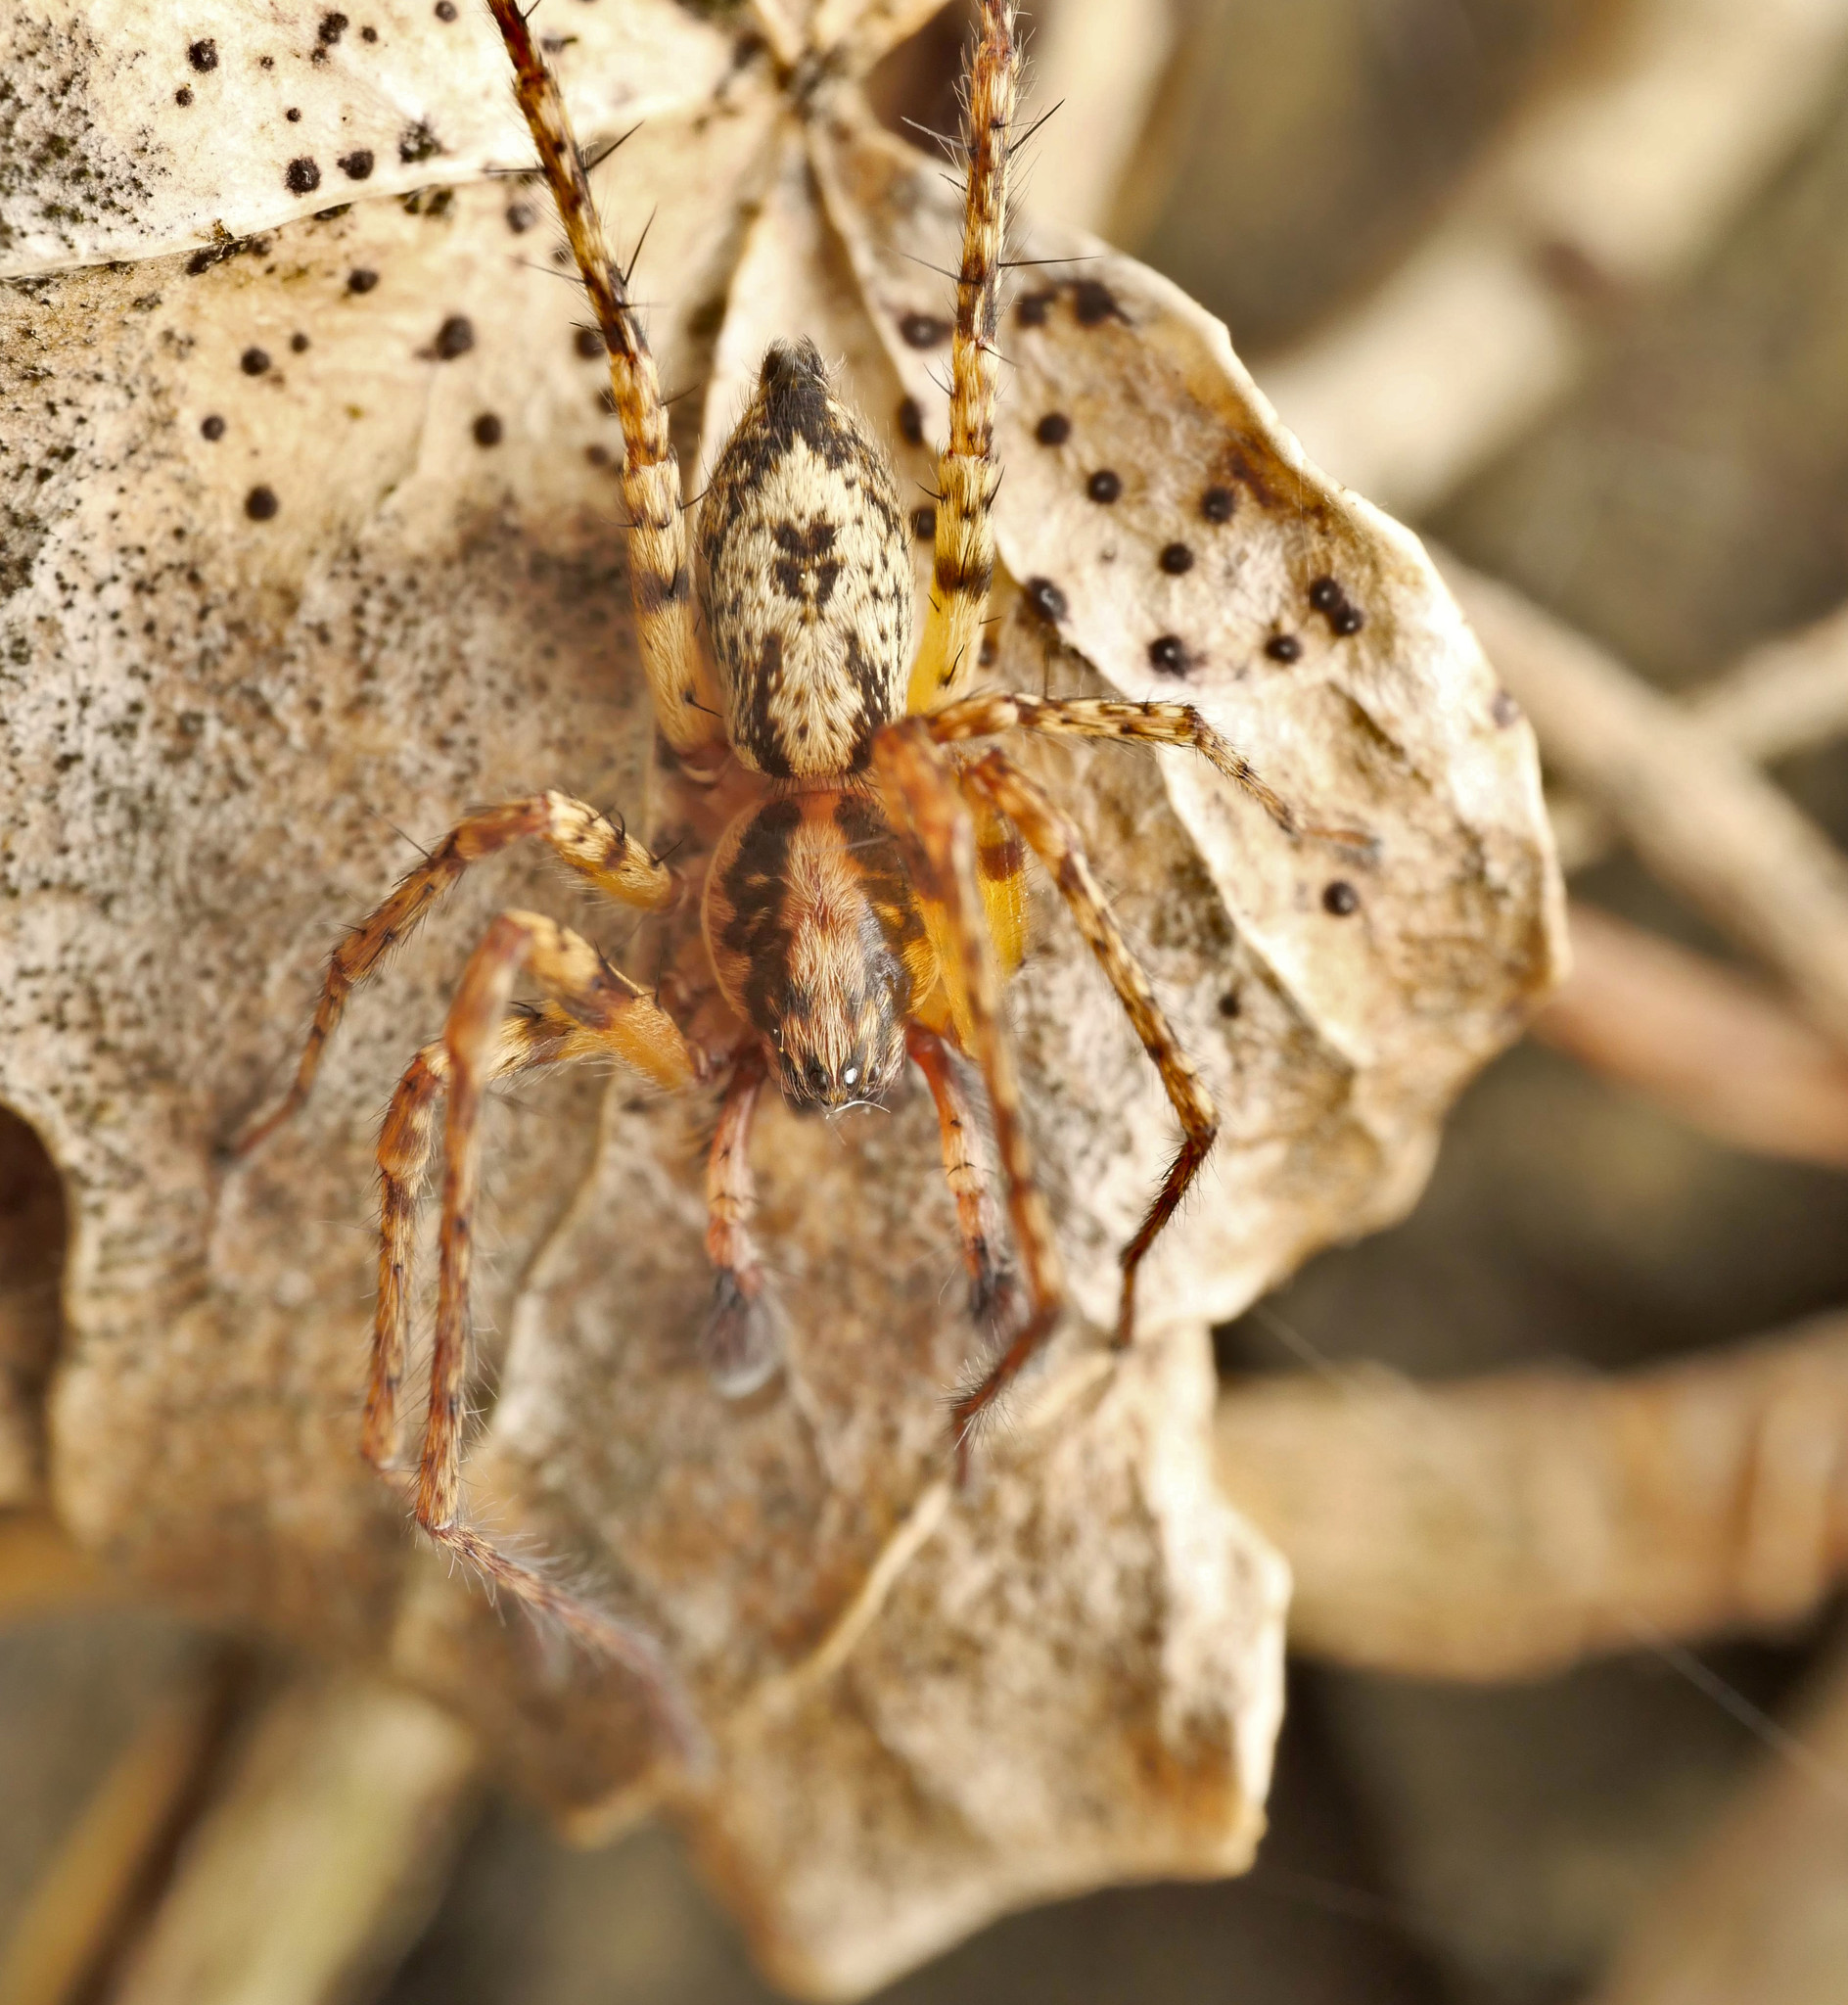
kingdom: Animalia
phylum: Arthropoda
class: Arachnida
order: Araneae
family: Anyphaenidae
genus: Anyphaena
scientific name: Anyphaena accentuata
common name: Buzzing spider
